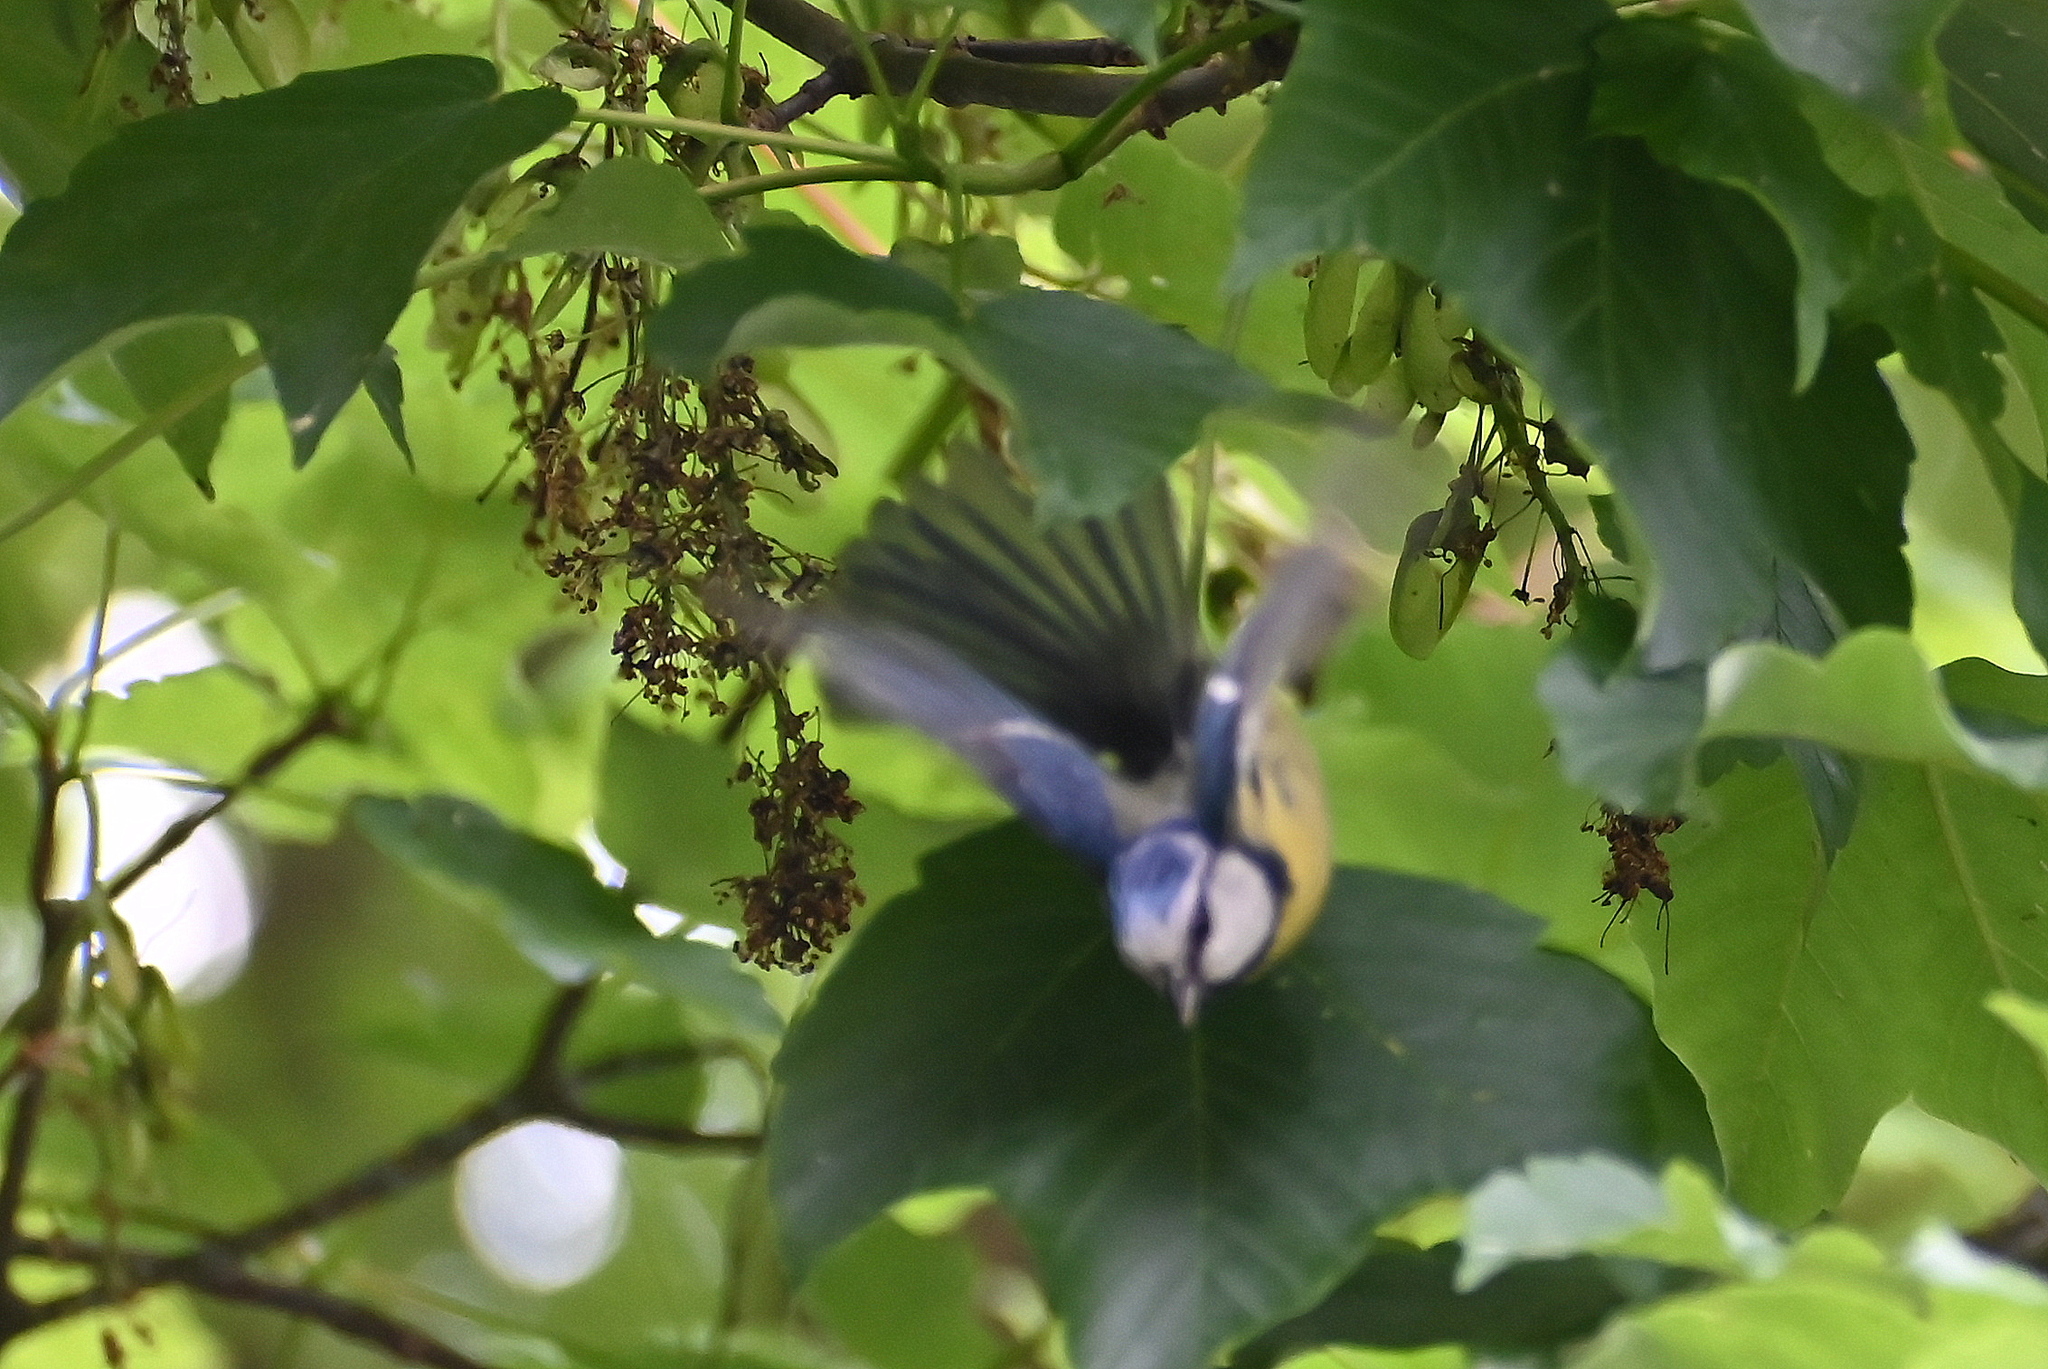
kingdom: Animalia
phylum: Chordata
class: Aves
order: Passeriformes
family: Paridae
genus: Cyanistes
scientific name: Cyanistes caeruleus
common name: Eurasian blue tit
